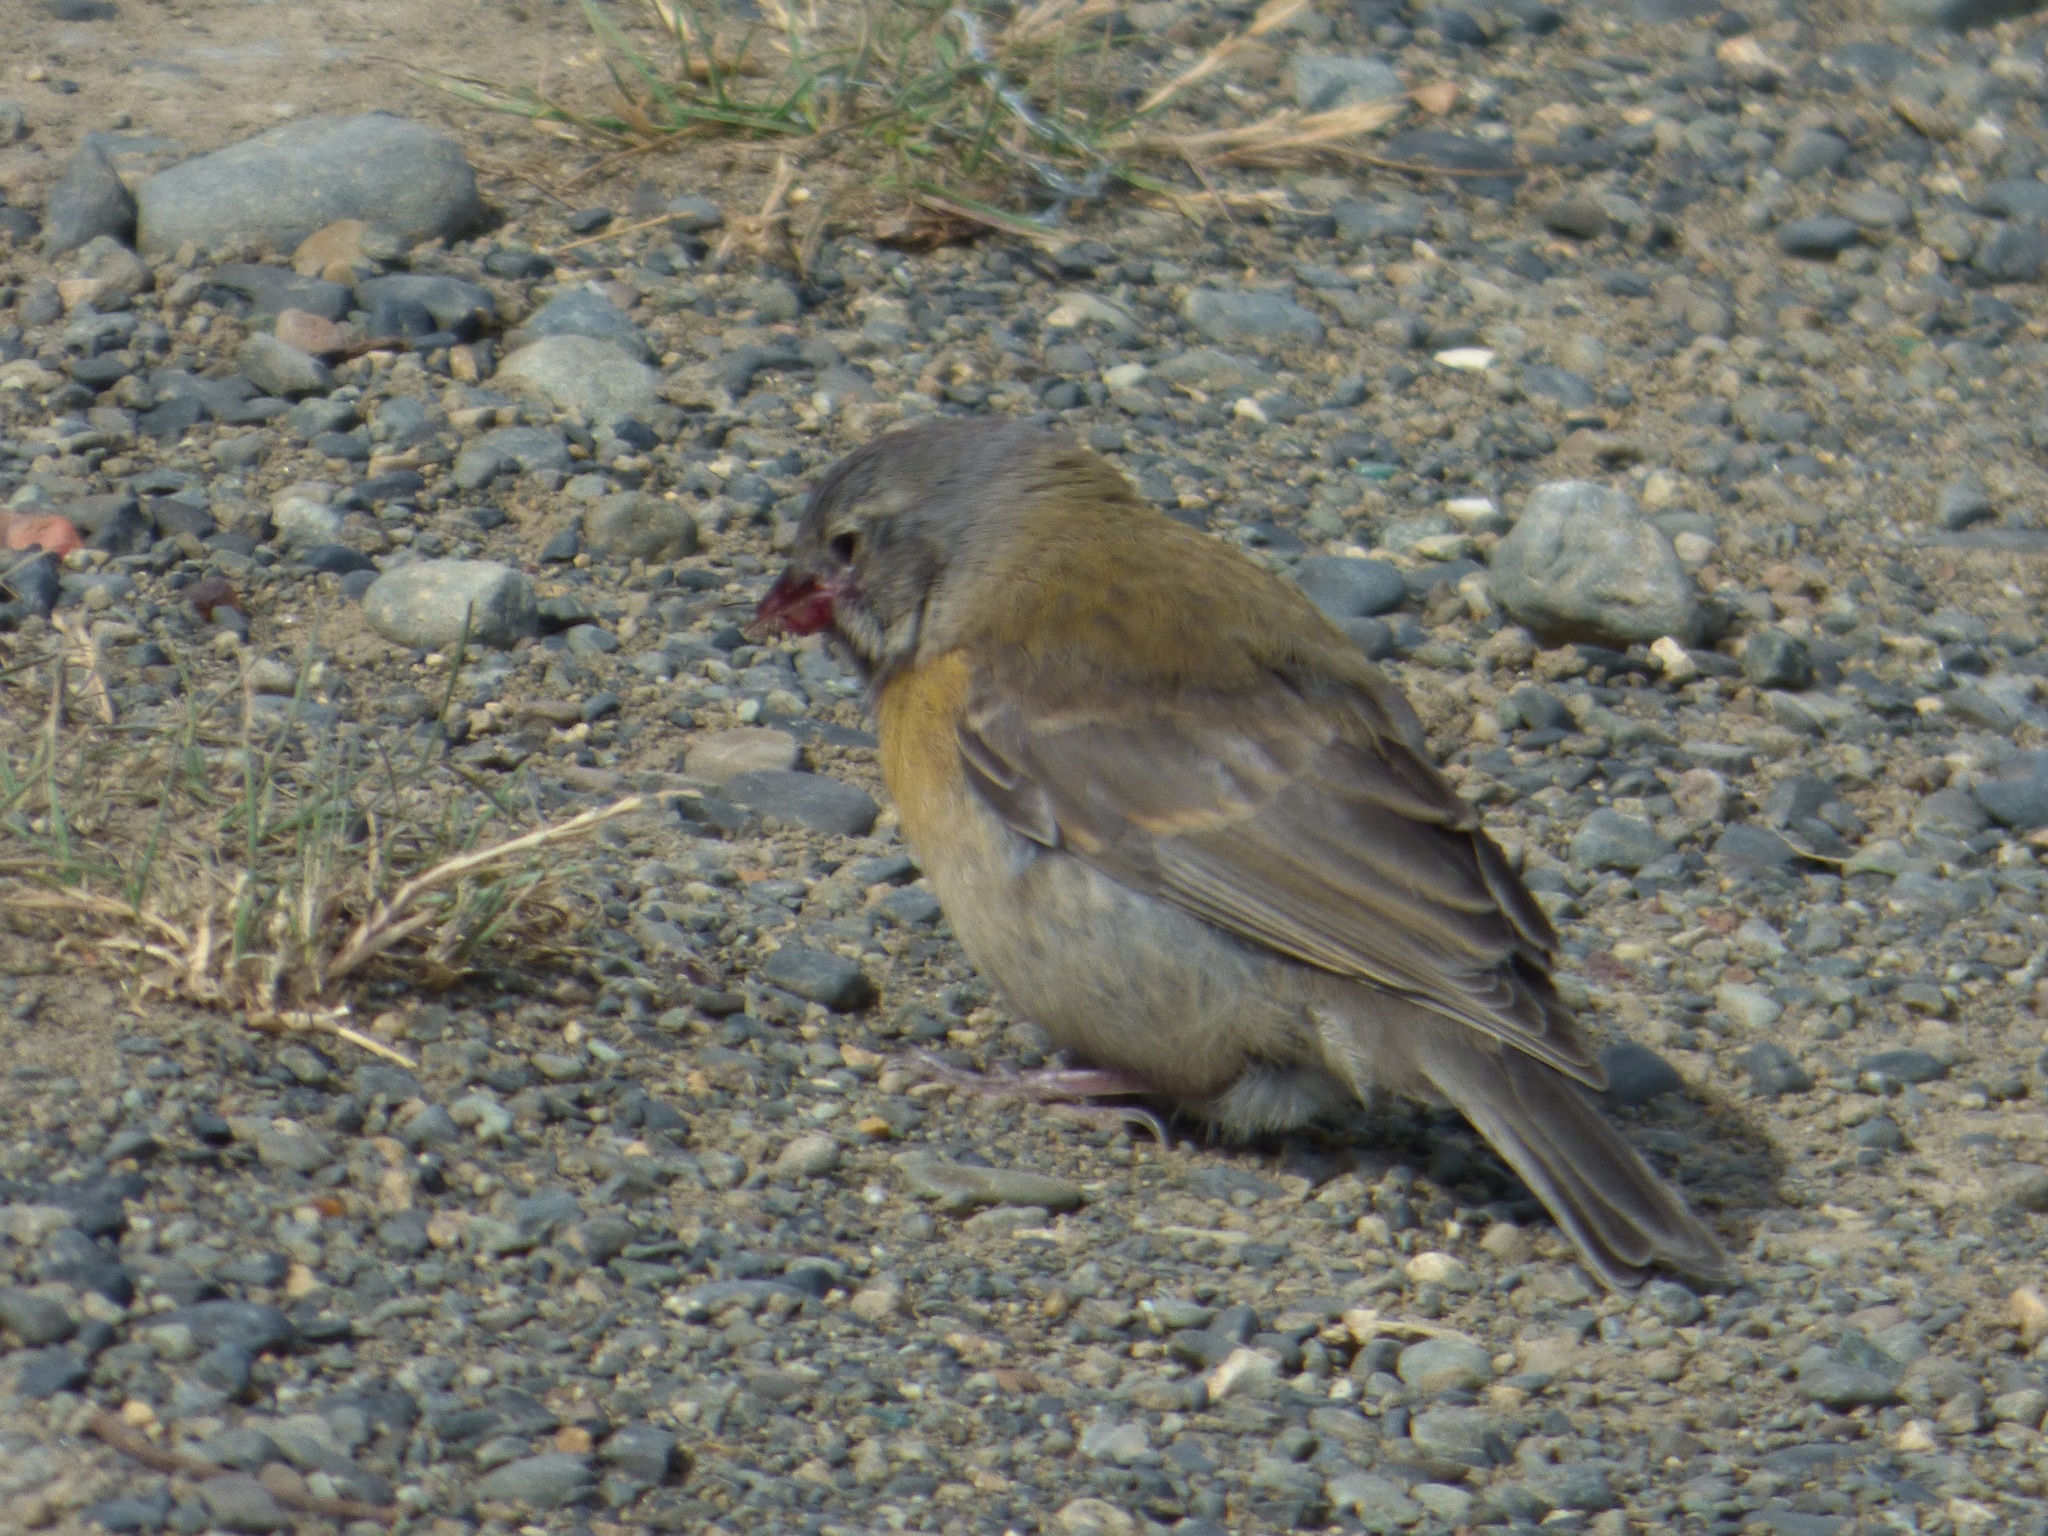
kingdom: Animalia
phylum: Chordata
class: Aves
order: Passeriformes
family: Thraupidae
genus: Phrygilus
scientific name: Phrygilus gayi
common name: Grey-hooded sierra finch
